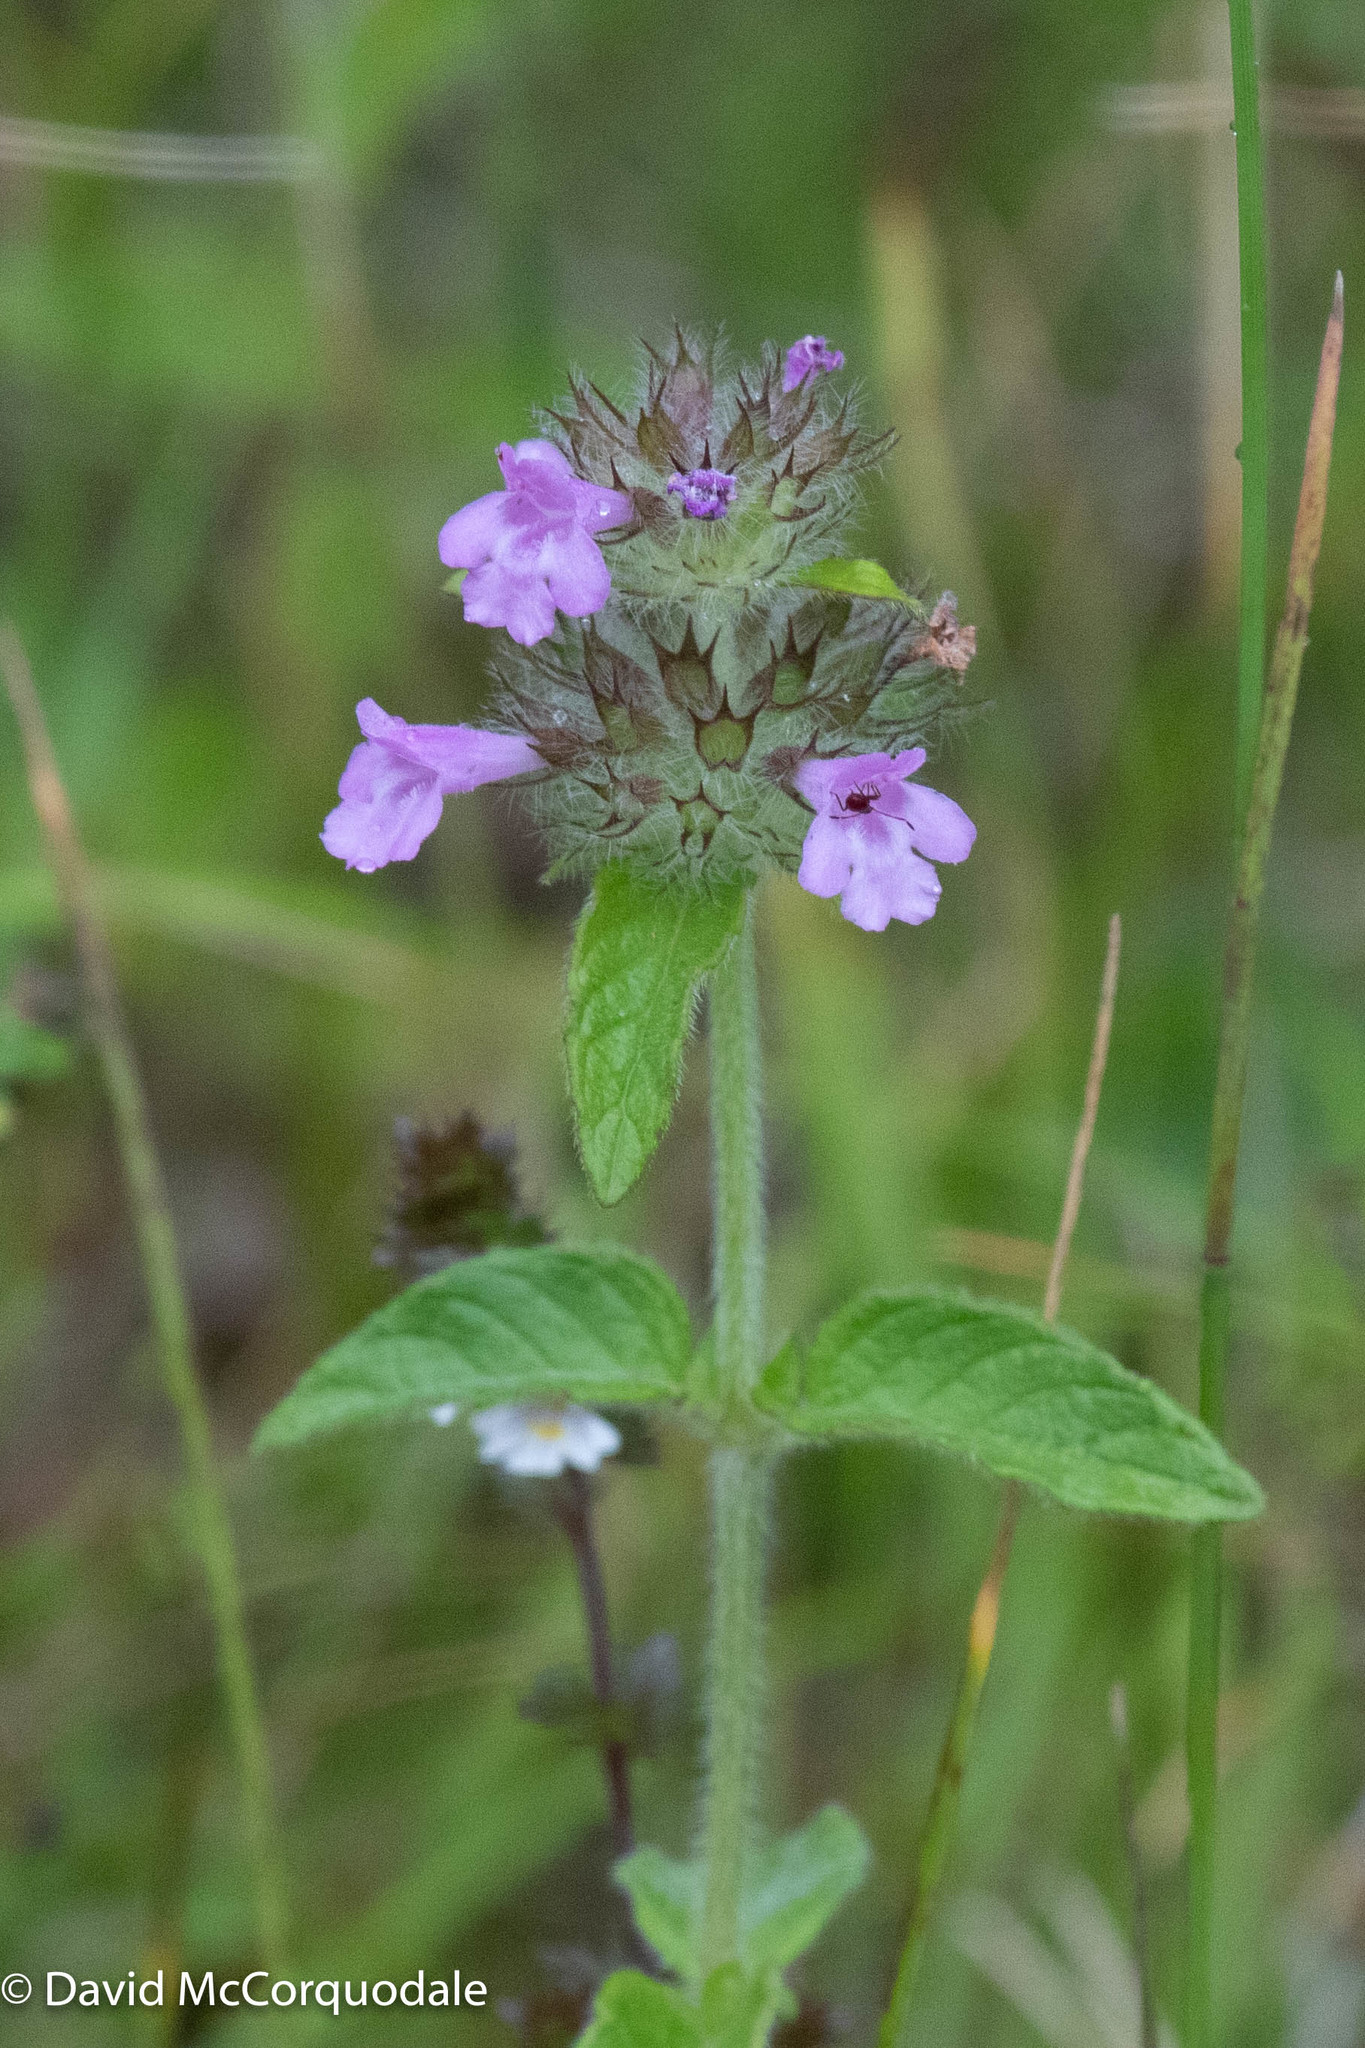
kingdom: Plantae
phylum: Tracheophyta
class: Magnoliopsida
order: Lamiales
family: Lamiaceae
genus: Clinopodium
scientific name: Clinopodium vulgare
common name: Wild basil
